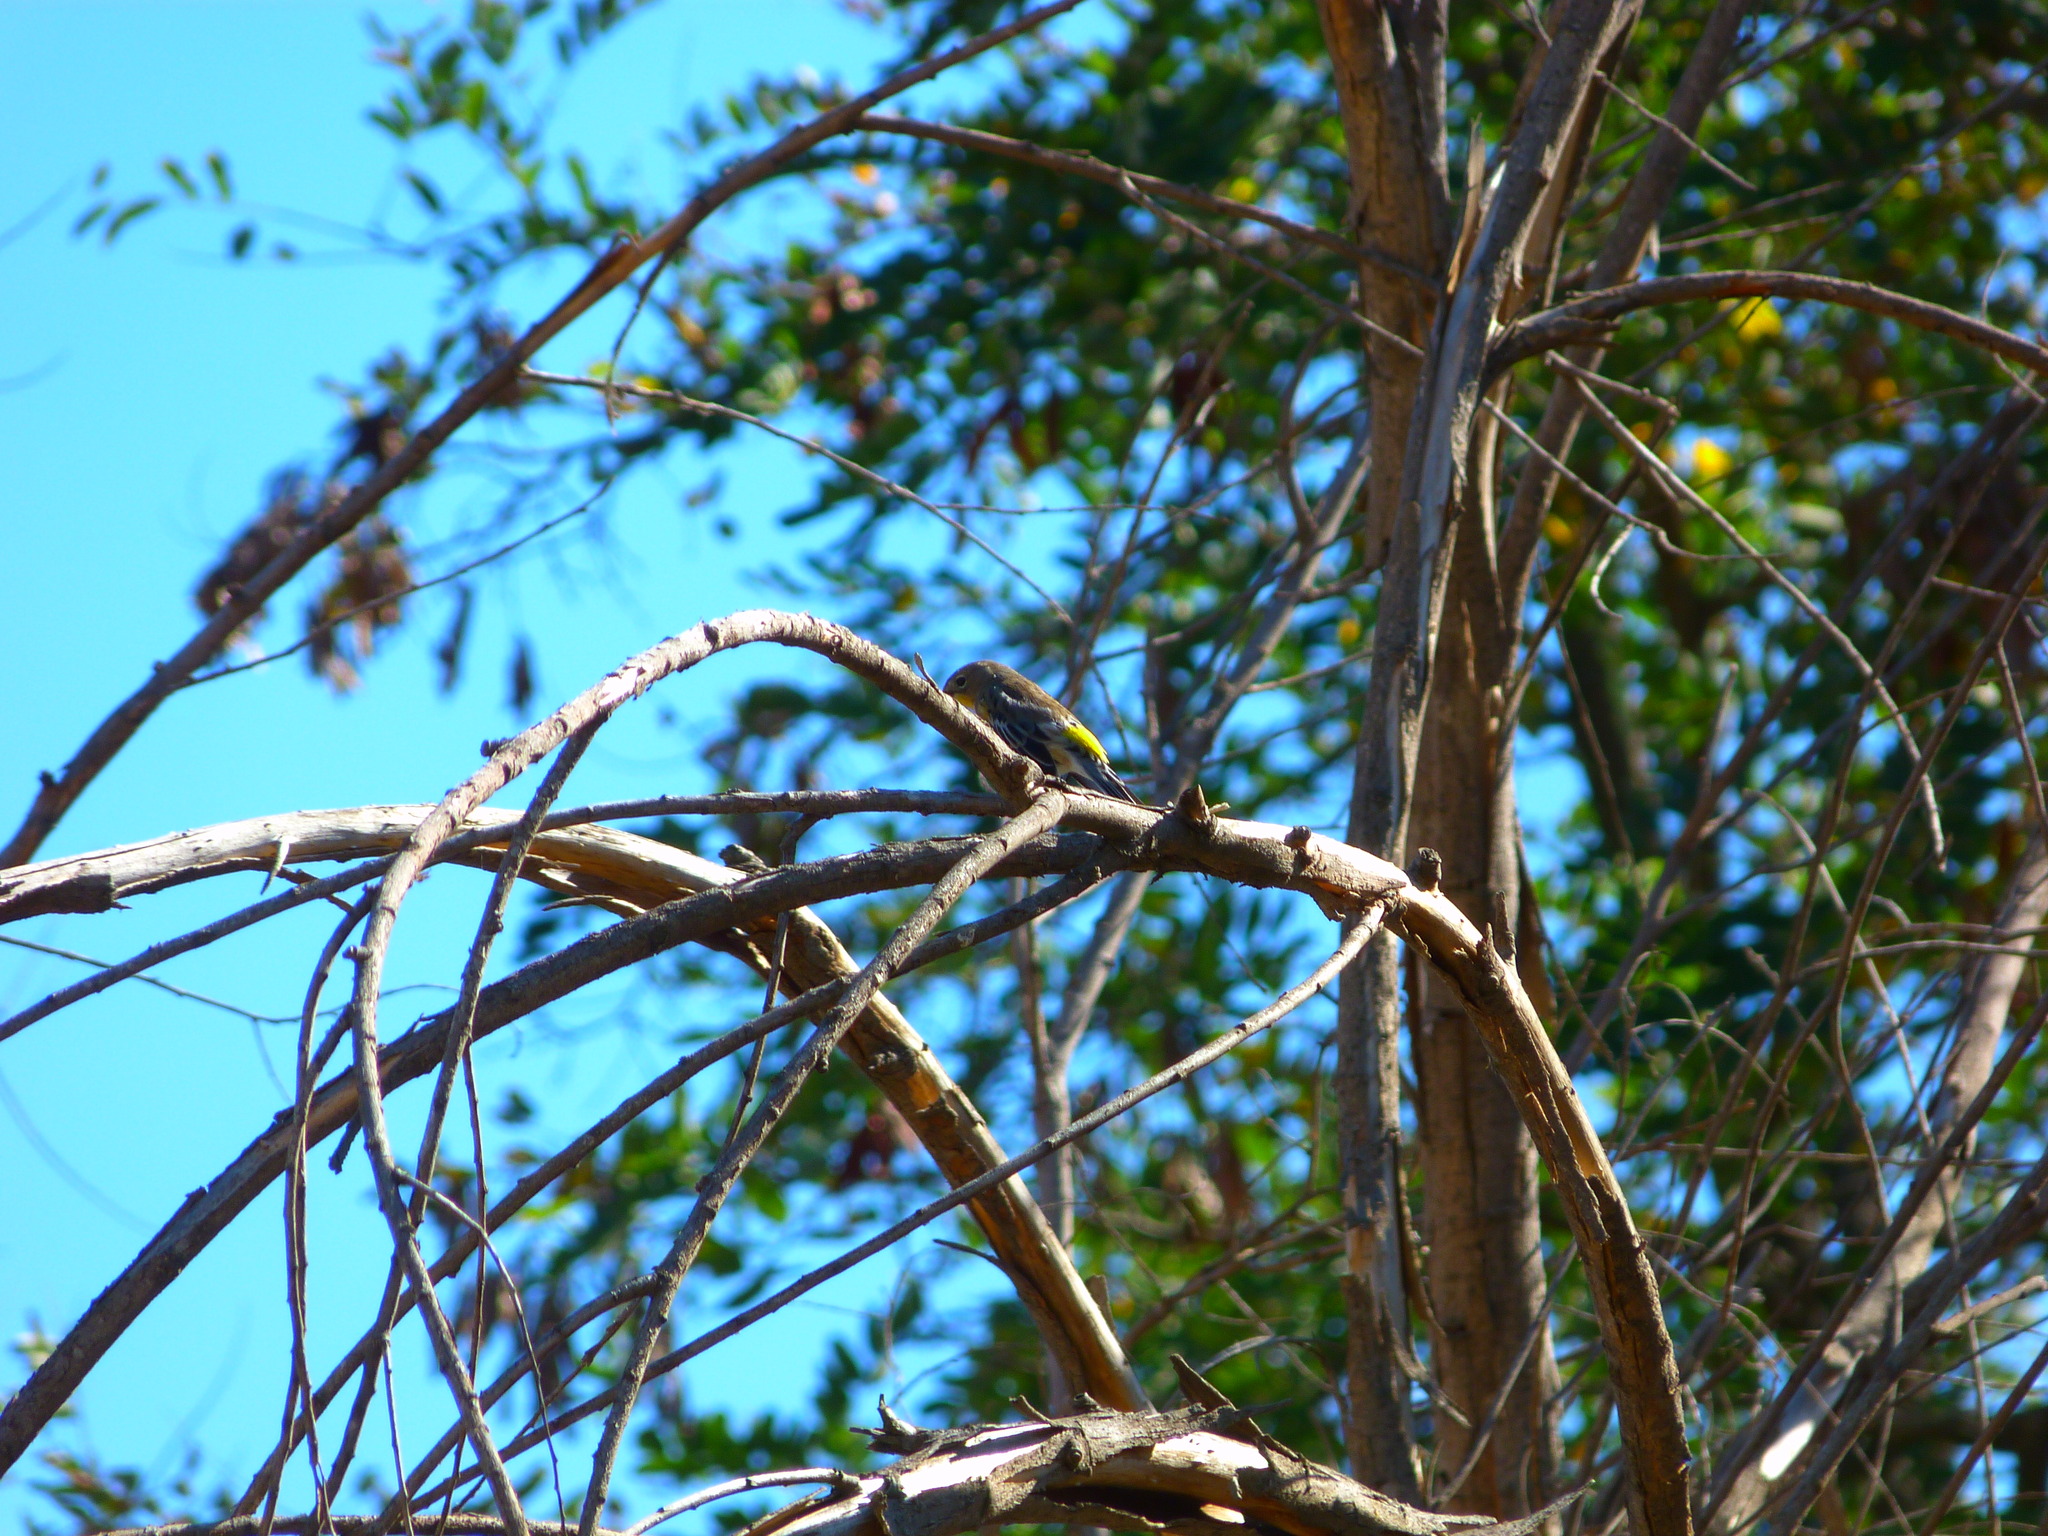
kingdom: Animalia
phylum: Chordata
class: Aves
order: Passeriformes
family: Parulidae
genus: Setophaga
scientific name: Setophaga coronata
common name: Myrtle warbler
